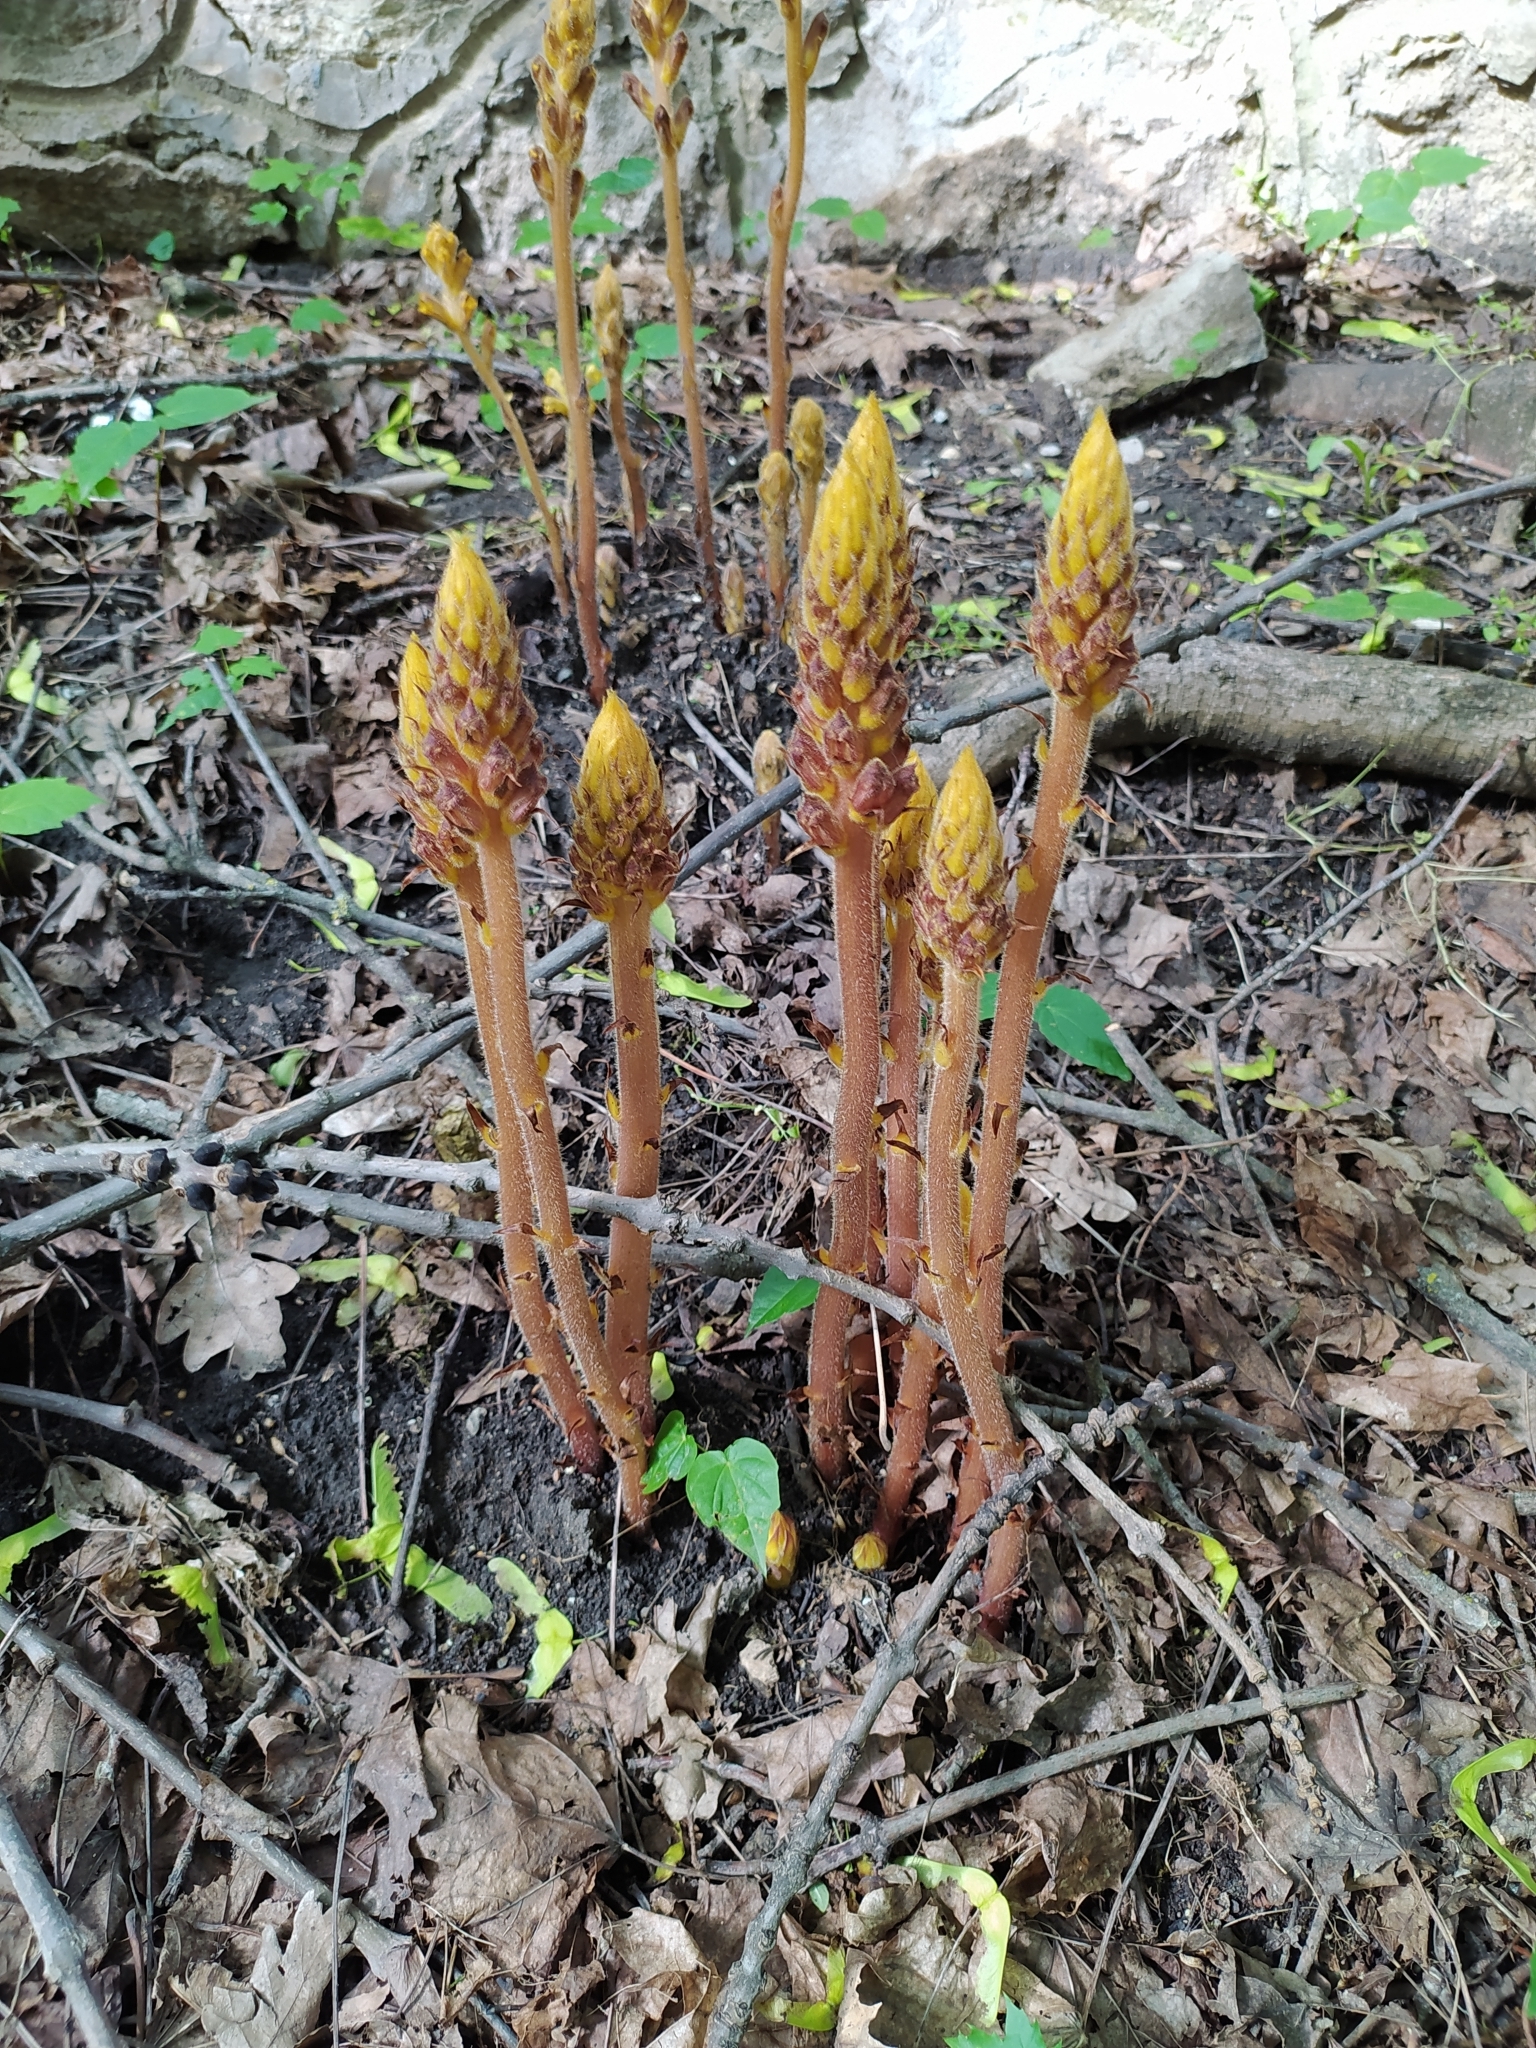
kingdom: Plantae
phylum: Tracheophyta
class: Magnoliopsida
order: Lamiales
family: Orobanchaceae
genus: Orobanche
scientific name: Orobanche laxissima
